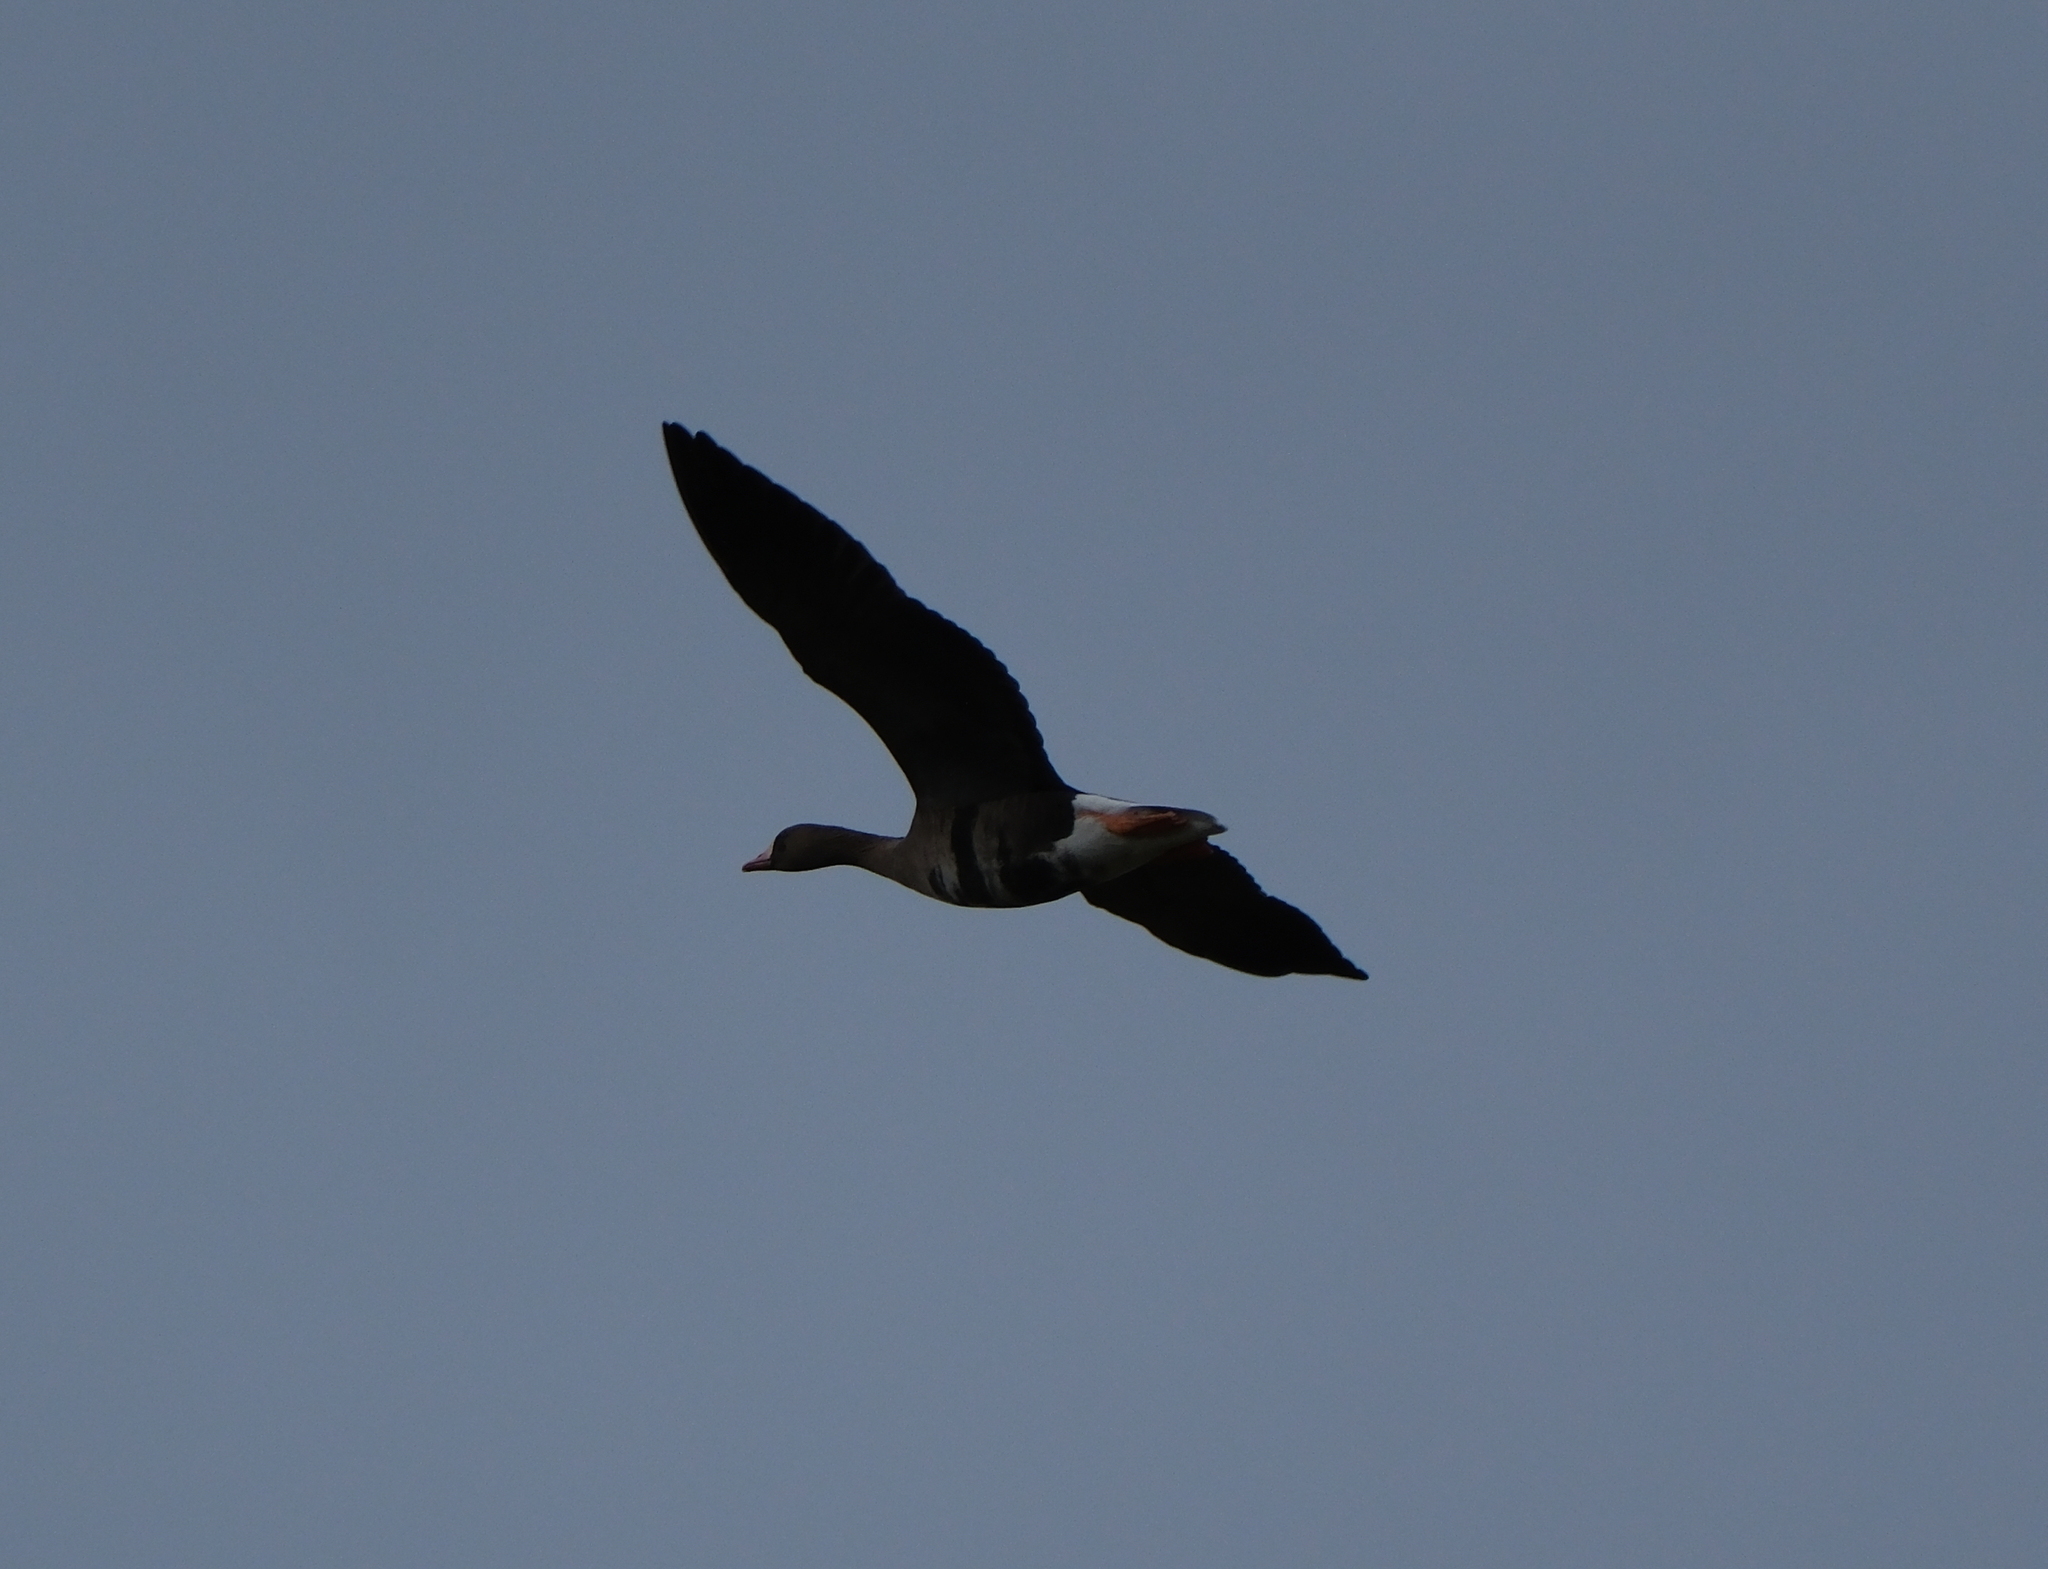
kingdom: Animalia
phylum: Chordata
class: Aves
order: Anseriformes
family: Anatidae
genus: Anser
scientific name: Anser albifrons
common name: Greater white-fronted goose
